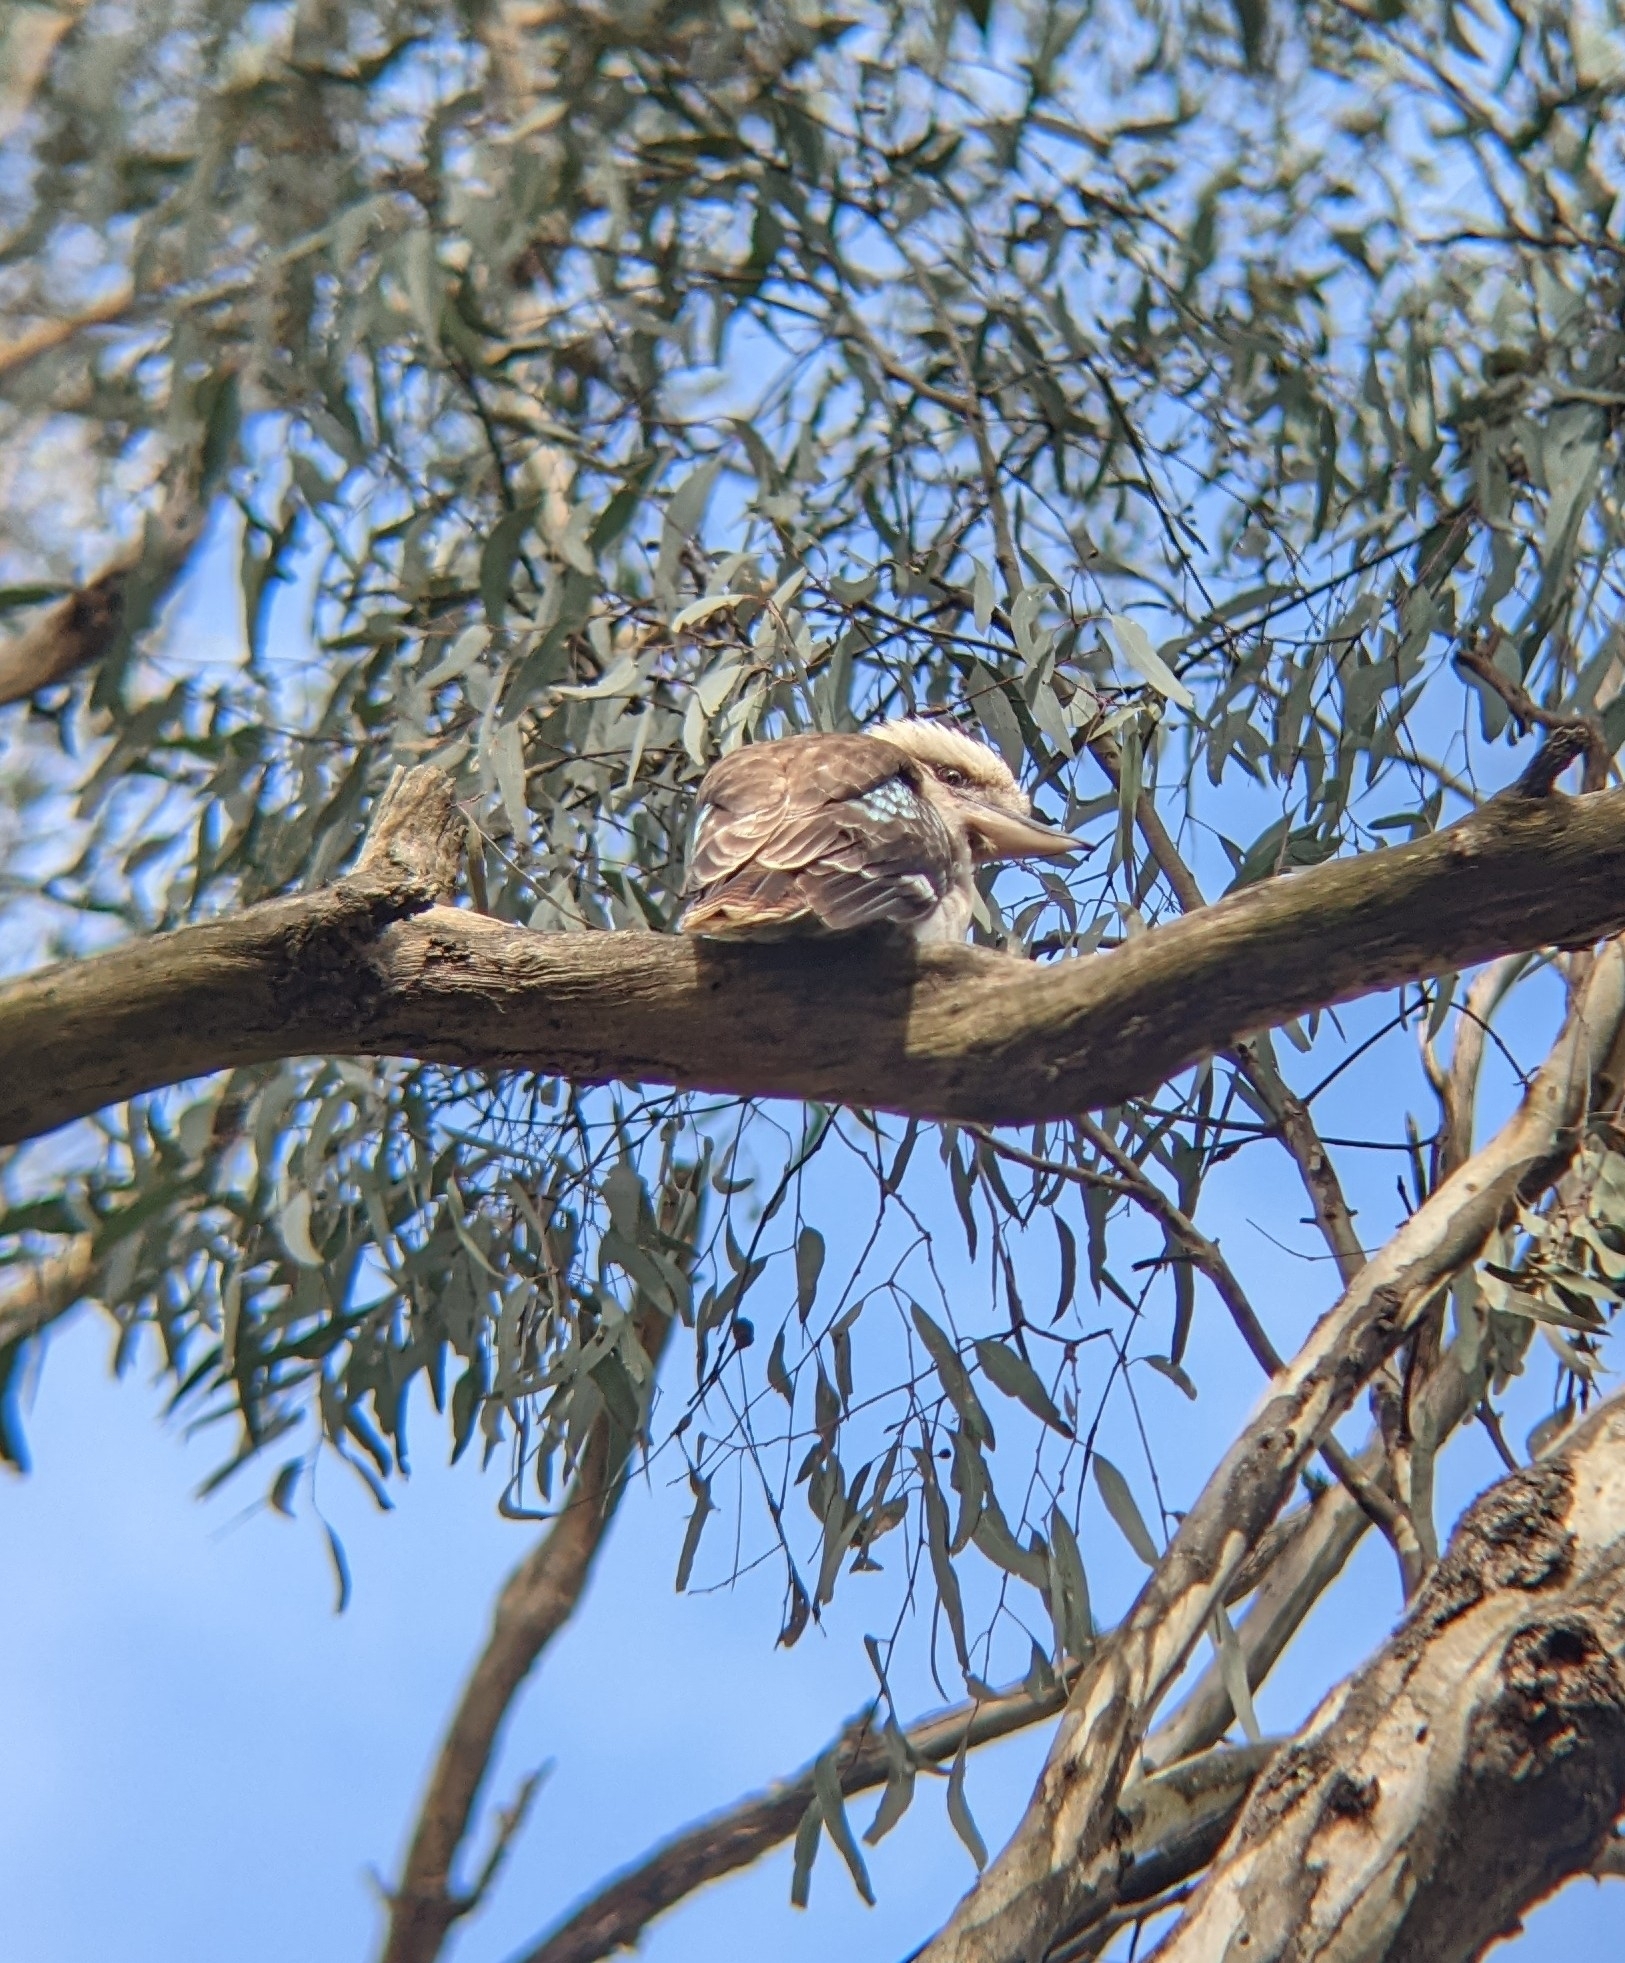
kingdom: Animalia
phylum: Chordata
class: Aves
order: Coraciiformes
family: Alcedinidae
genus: Dacelo
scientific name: Dacelo novaeguineae
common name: Laughing kookaburra
